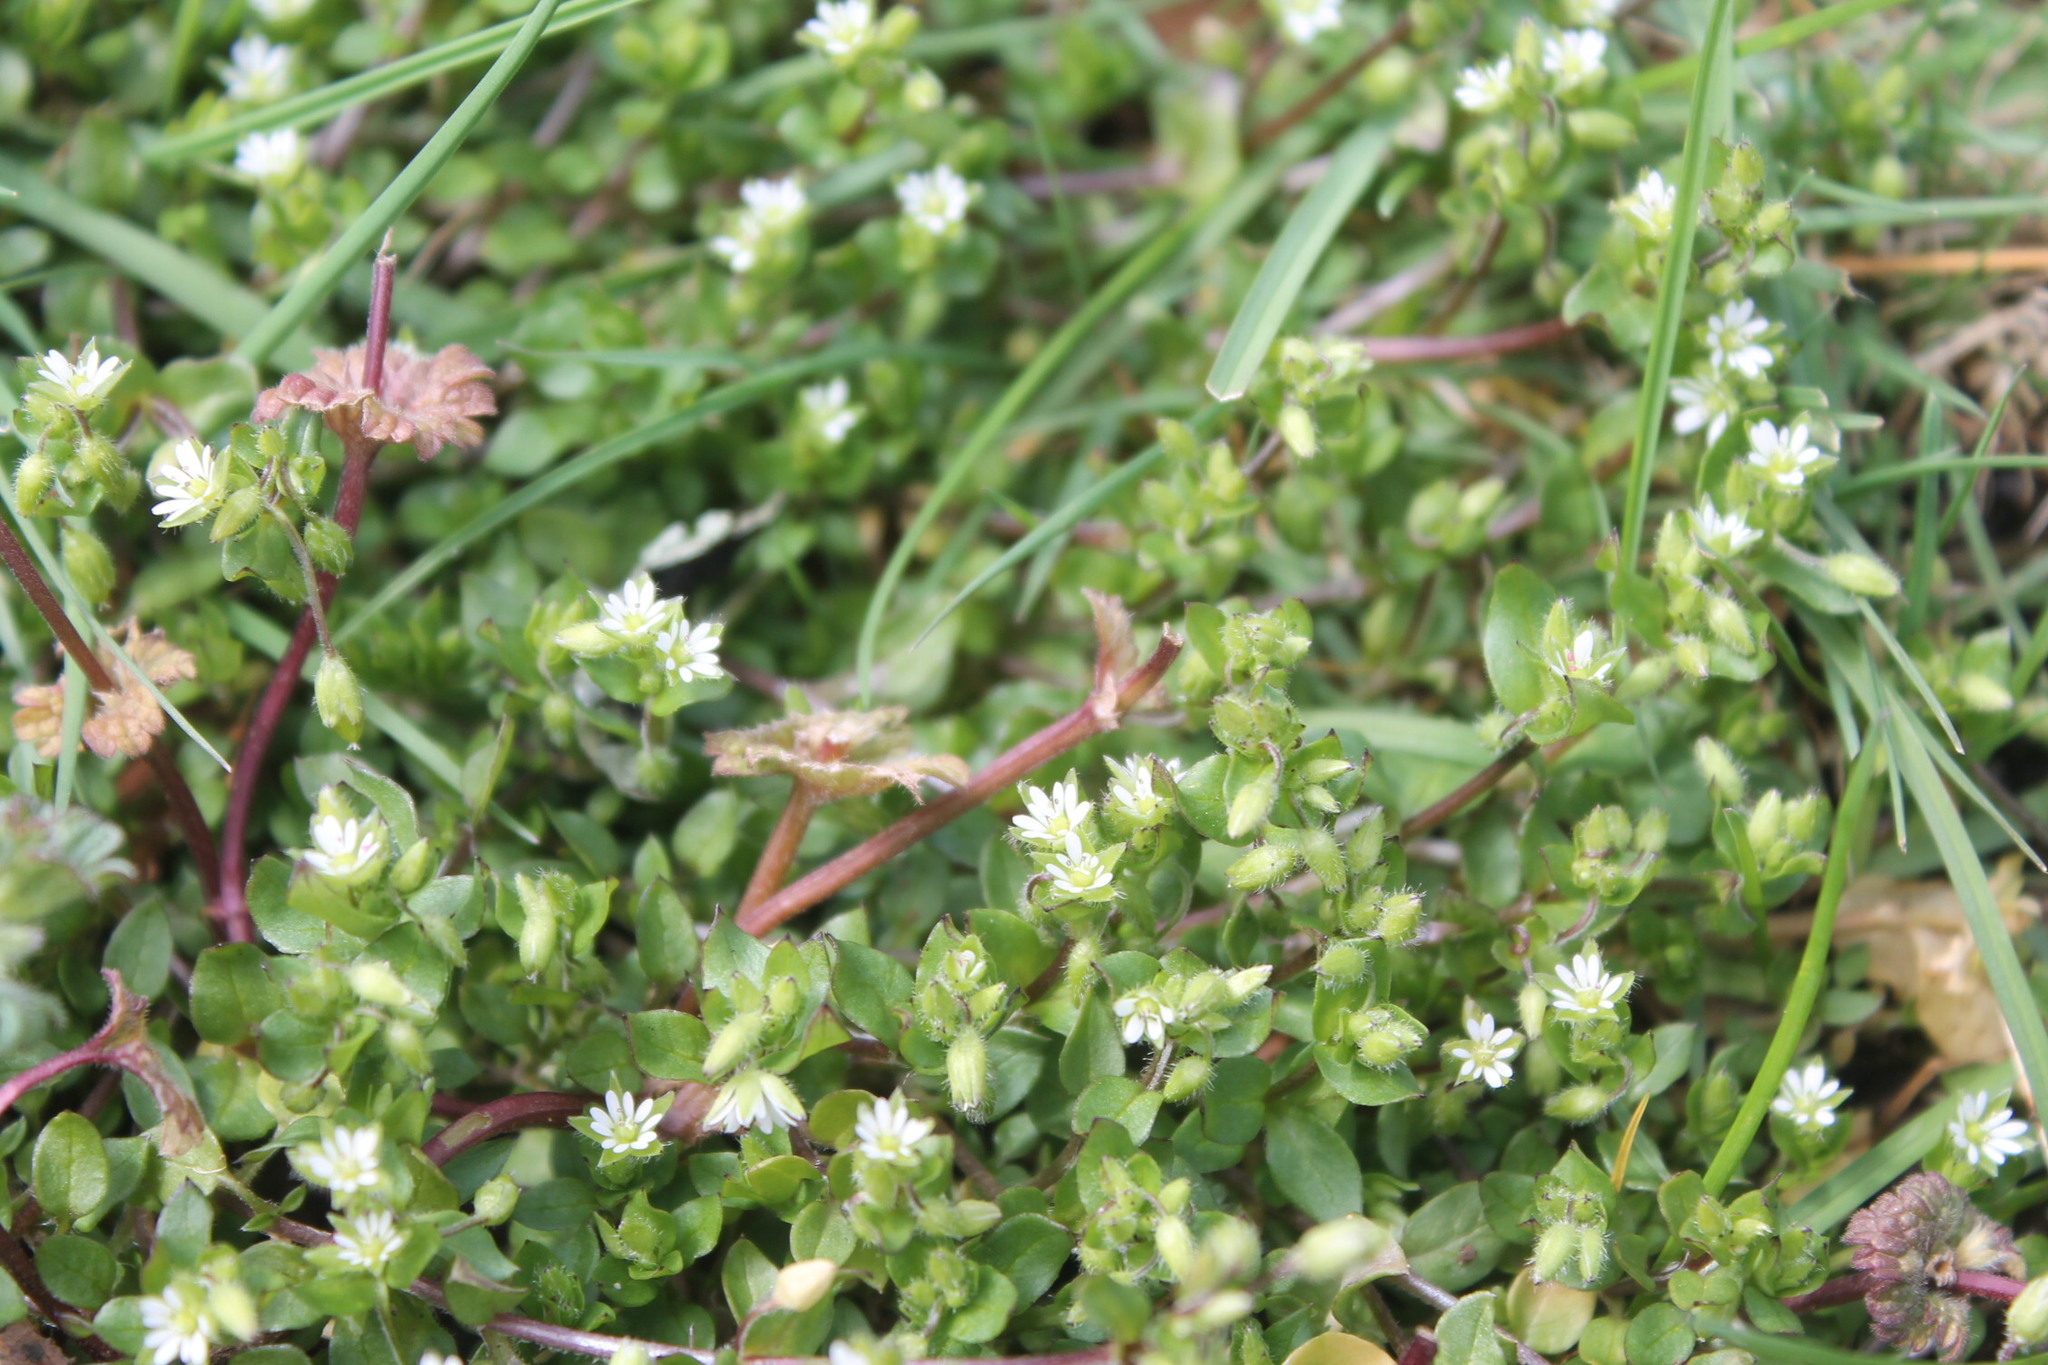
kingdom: Plantae
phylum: Tracheophyta
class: Magnoliopsida
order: Caryophyllales
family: Caryophyllaceae
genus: Stellaria
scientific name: Stellaria media
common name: Common chickweed
